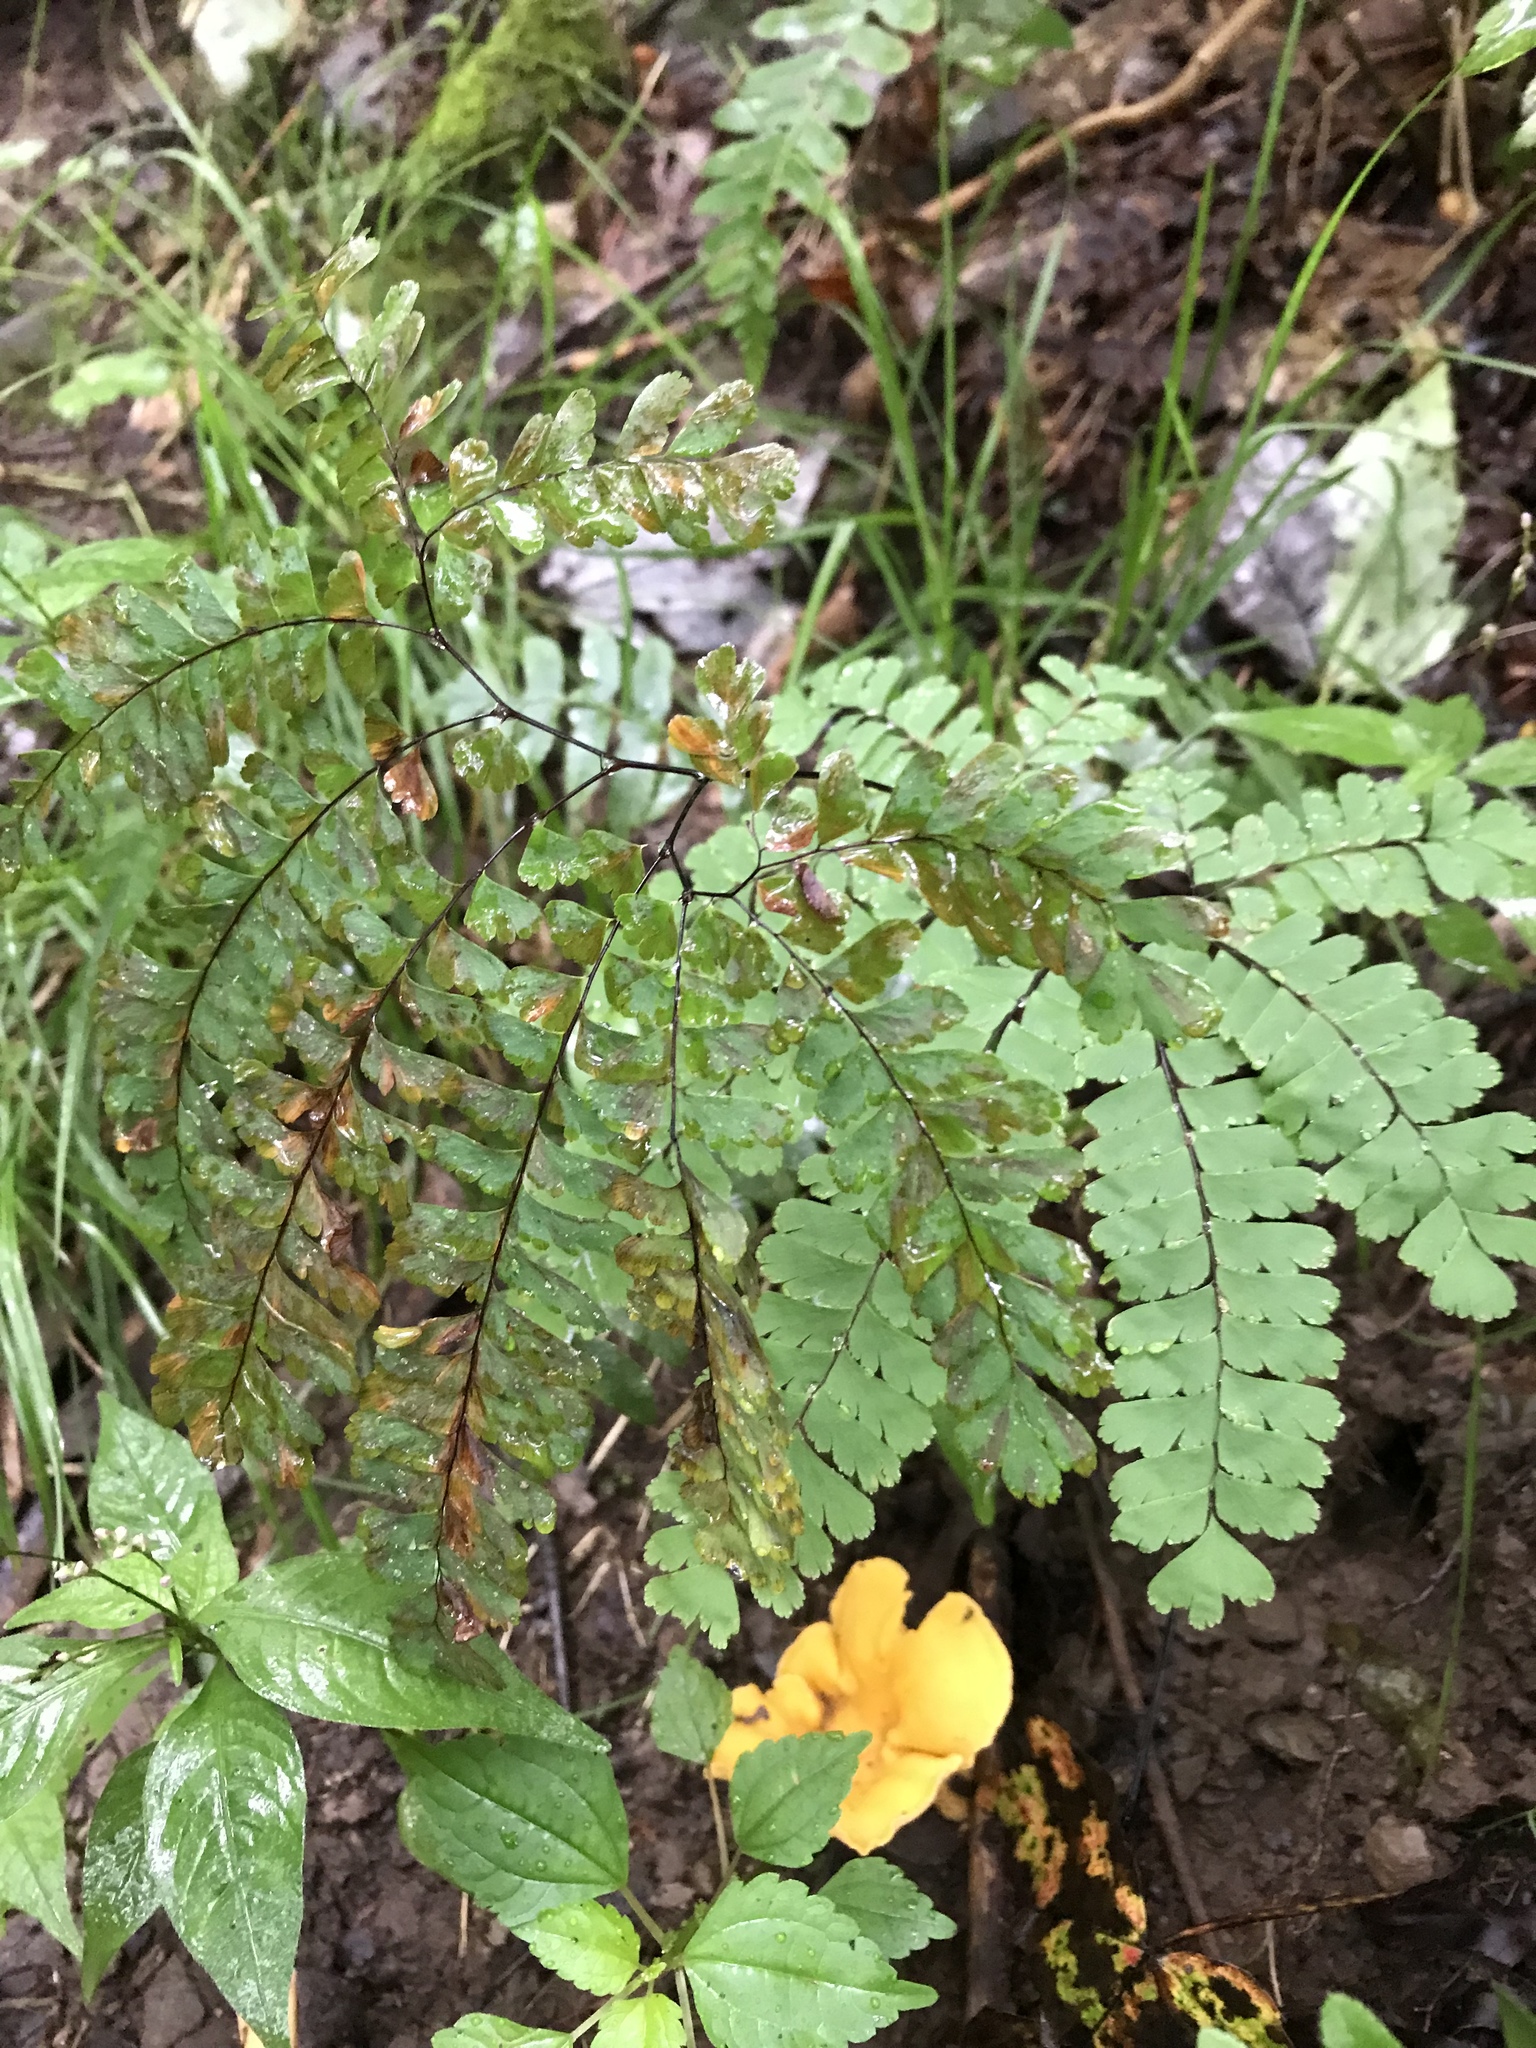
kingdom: Plantae
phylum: Tracheophyta
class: Polypodiopsida
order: Polypodiales
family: Pteridaceae
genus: Adiantum
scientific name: Adiantum pedatum
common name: Five-finger fern
